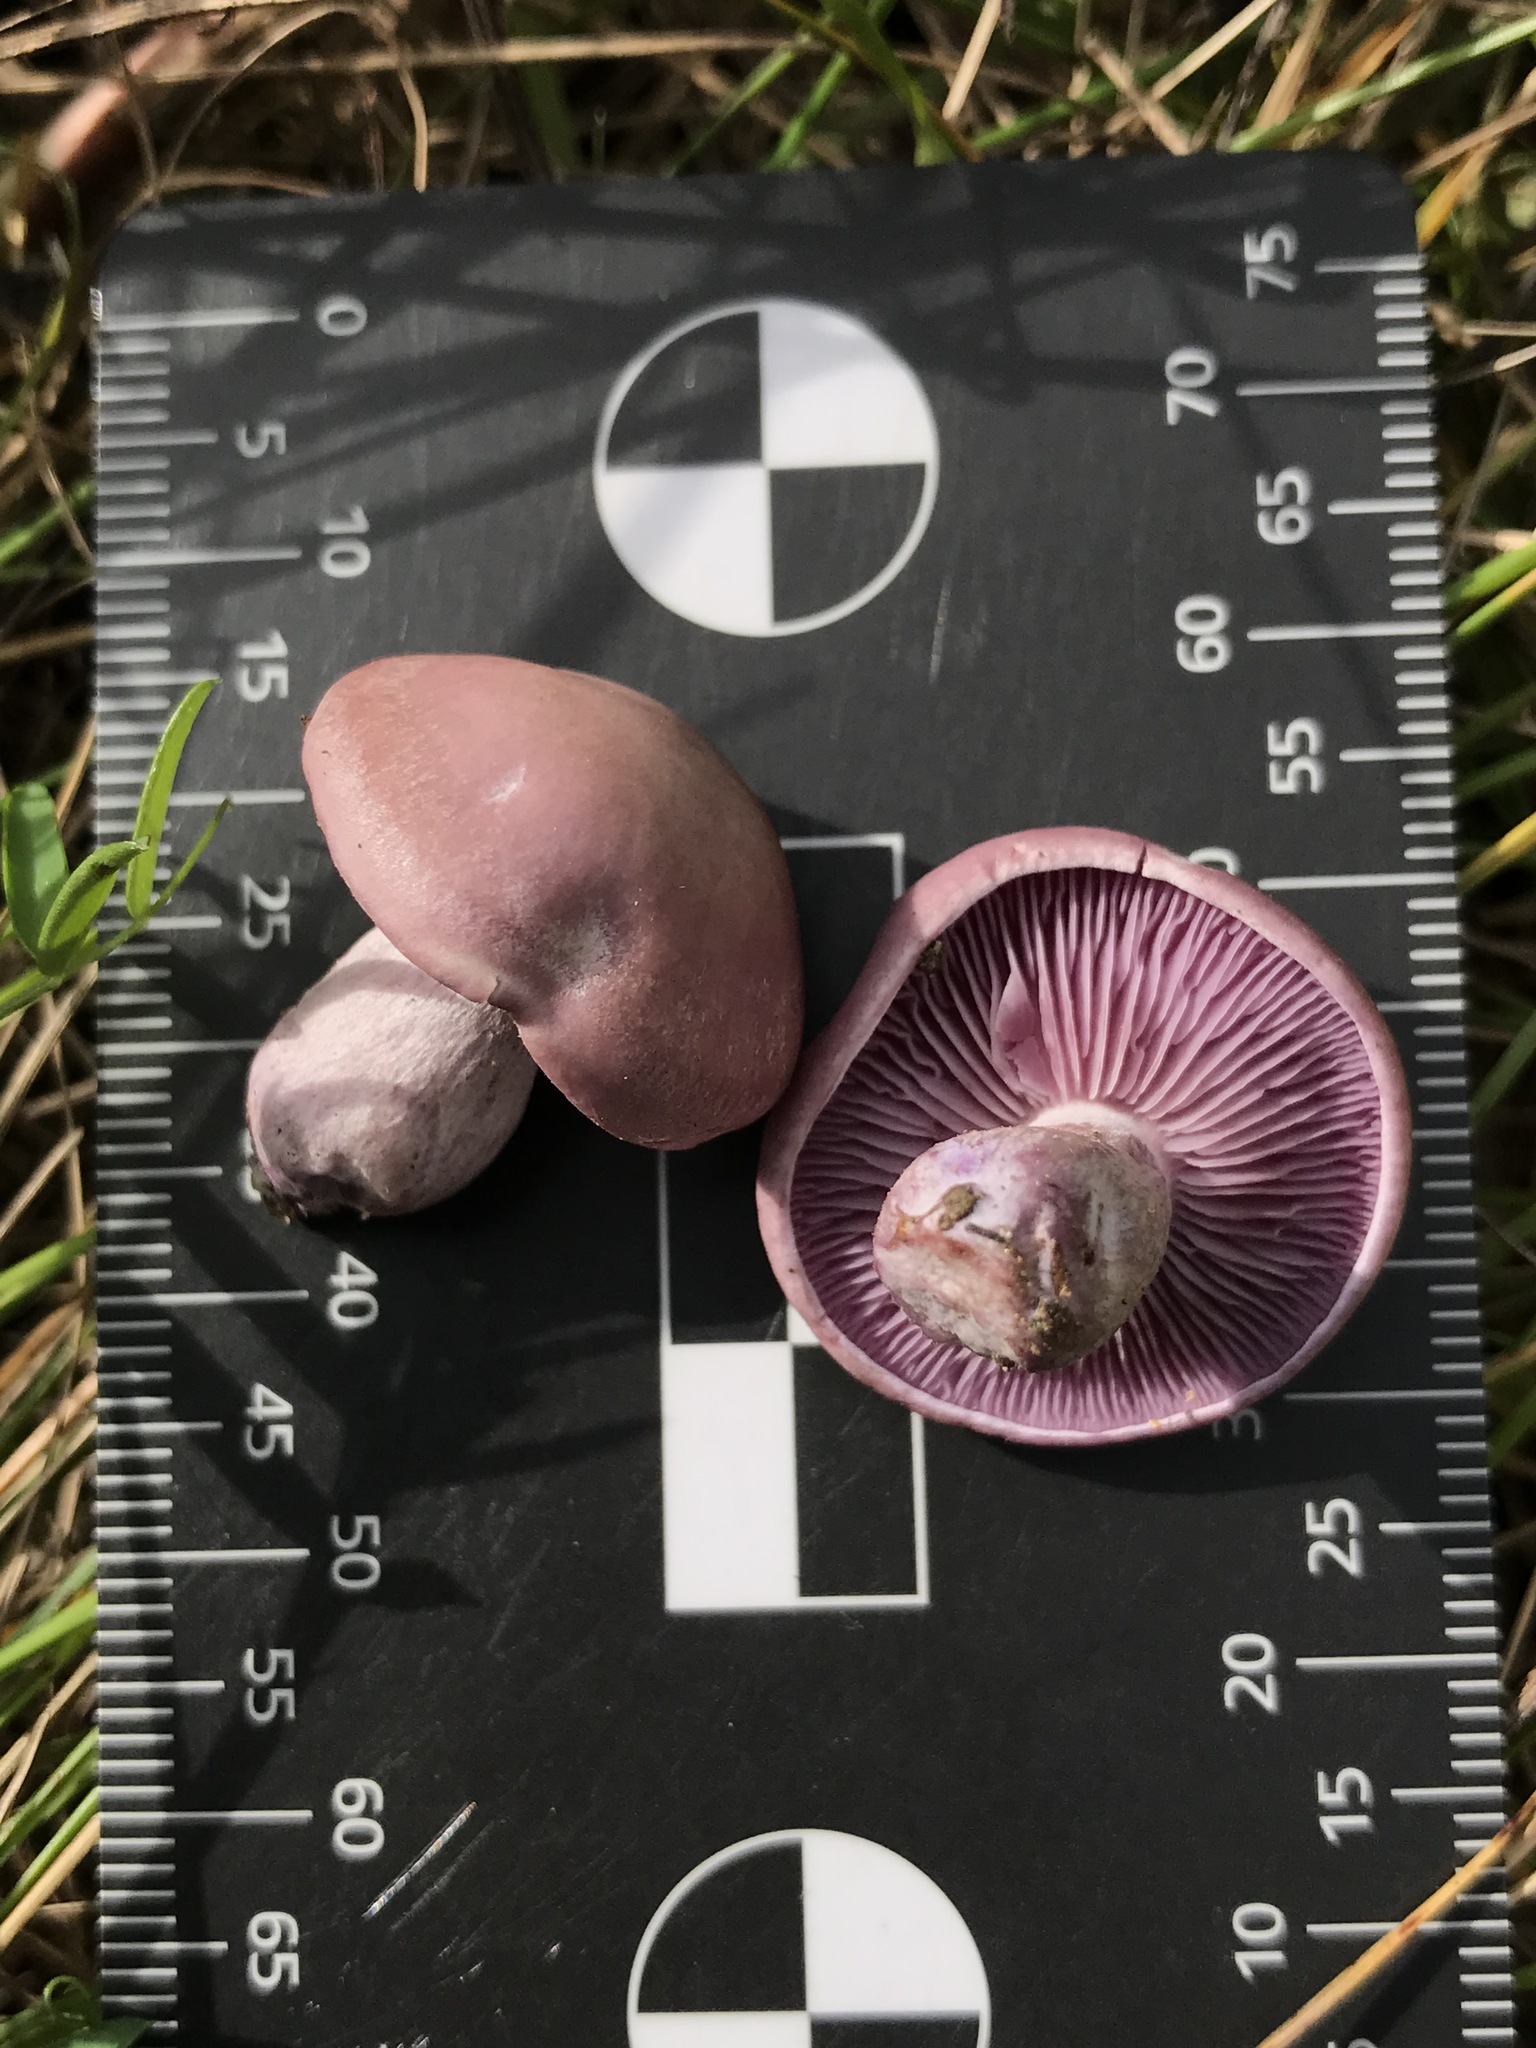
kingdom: Fungi
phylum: Basidiomycota
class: Agaricomycetes
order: Agaricales
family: Tricholomataceae
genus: Collybia
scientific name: Collybia
